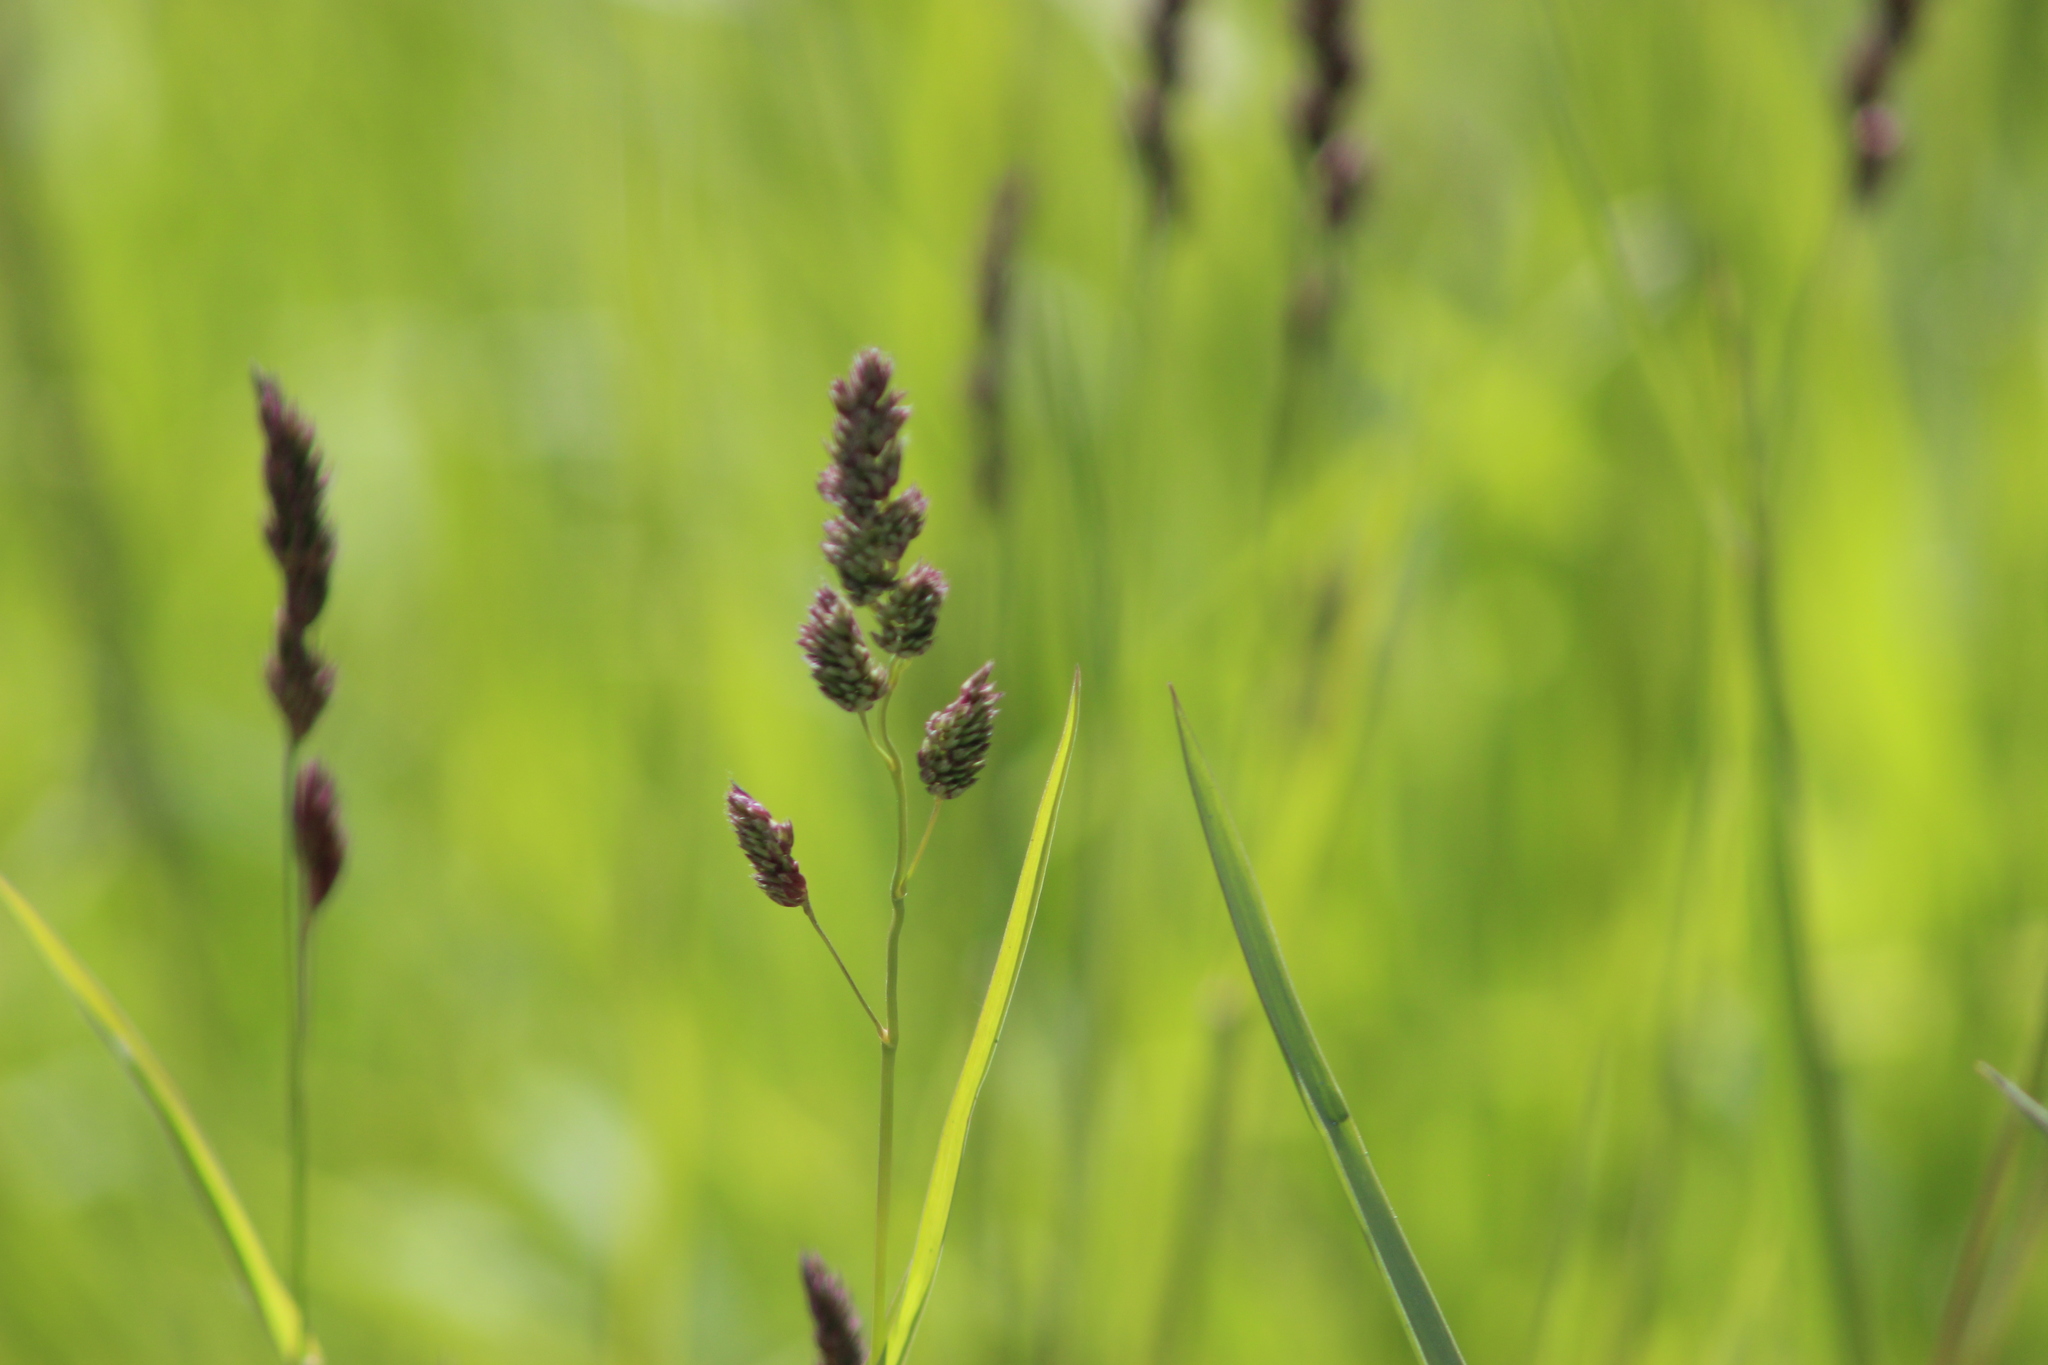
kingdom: Plantae
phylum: Tracheophyta
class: Liliopsida
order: Poales
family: Poaceae
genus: Dactylis
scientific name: Dactylis glomerata
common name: Orchardgrass
